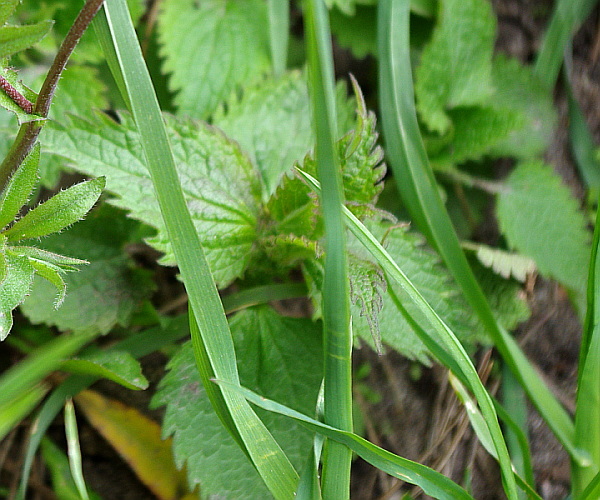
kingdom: Plantae
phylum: Tracheophyta
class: Magnoliopsida
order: Lamiales
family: Lamiaceae
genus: Lamium
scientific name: Lamium album
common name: White dead-nettle
